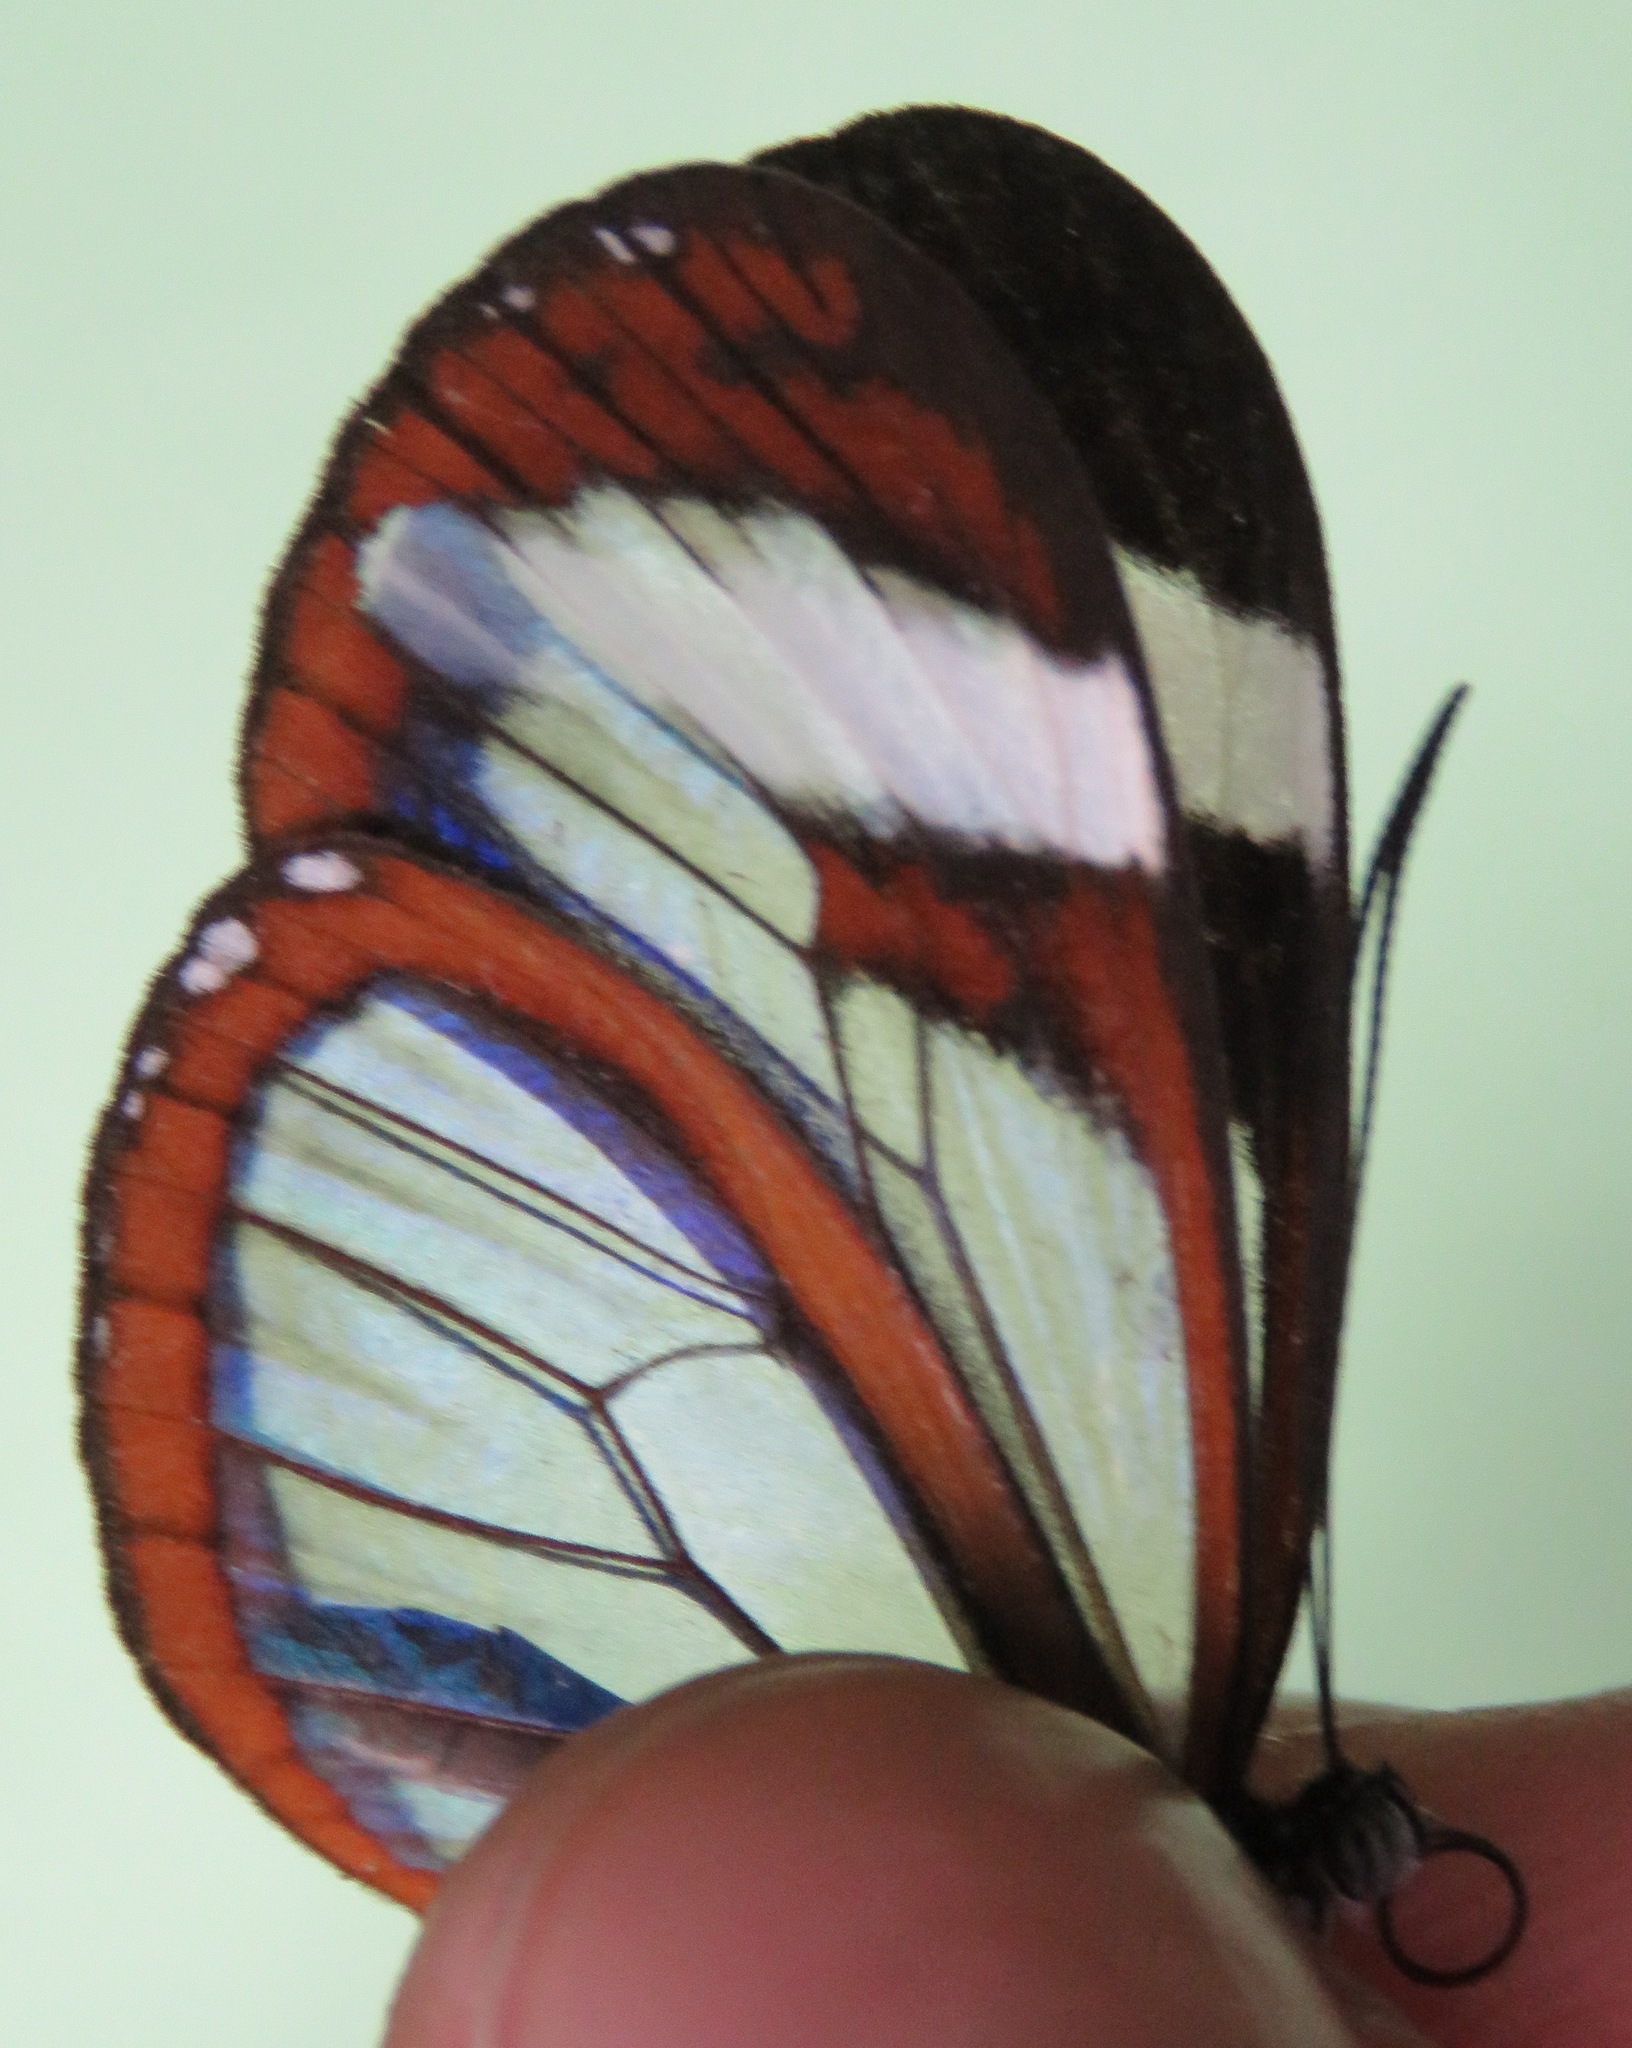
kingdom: Animalia
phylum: Arthropoda
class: Insecta
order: Lepidoptera
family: Nymphalidae
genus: Oleria
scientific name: Oleria paula
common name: Paula's clearwing
